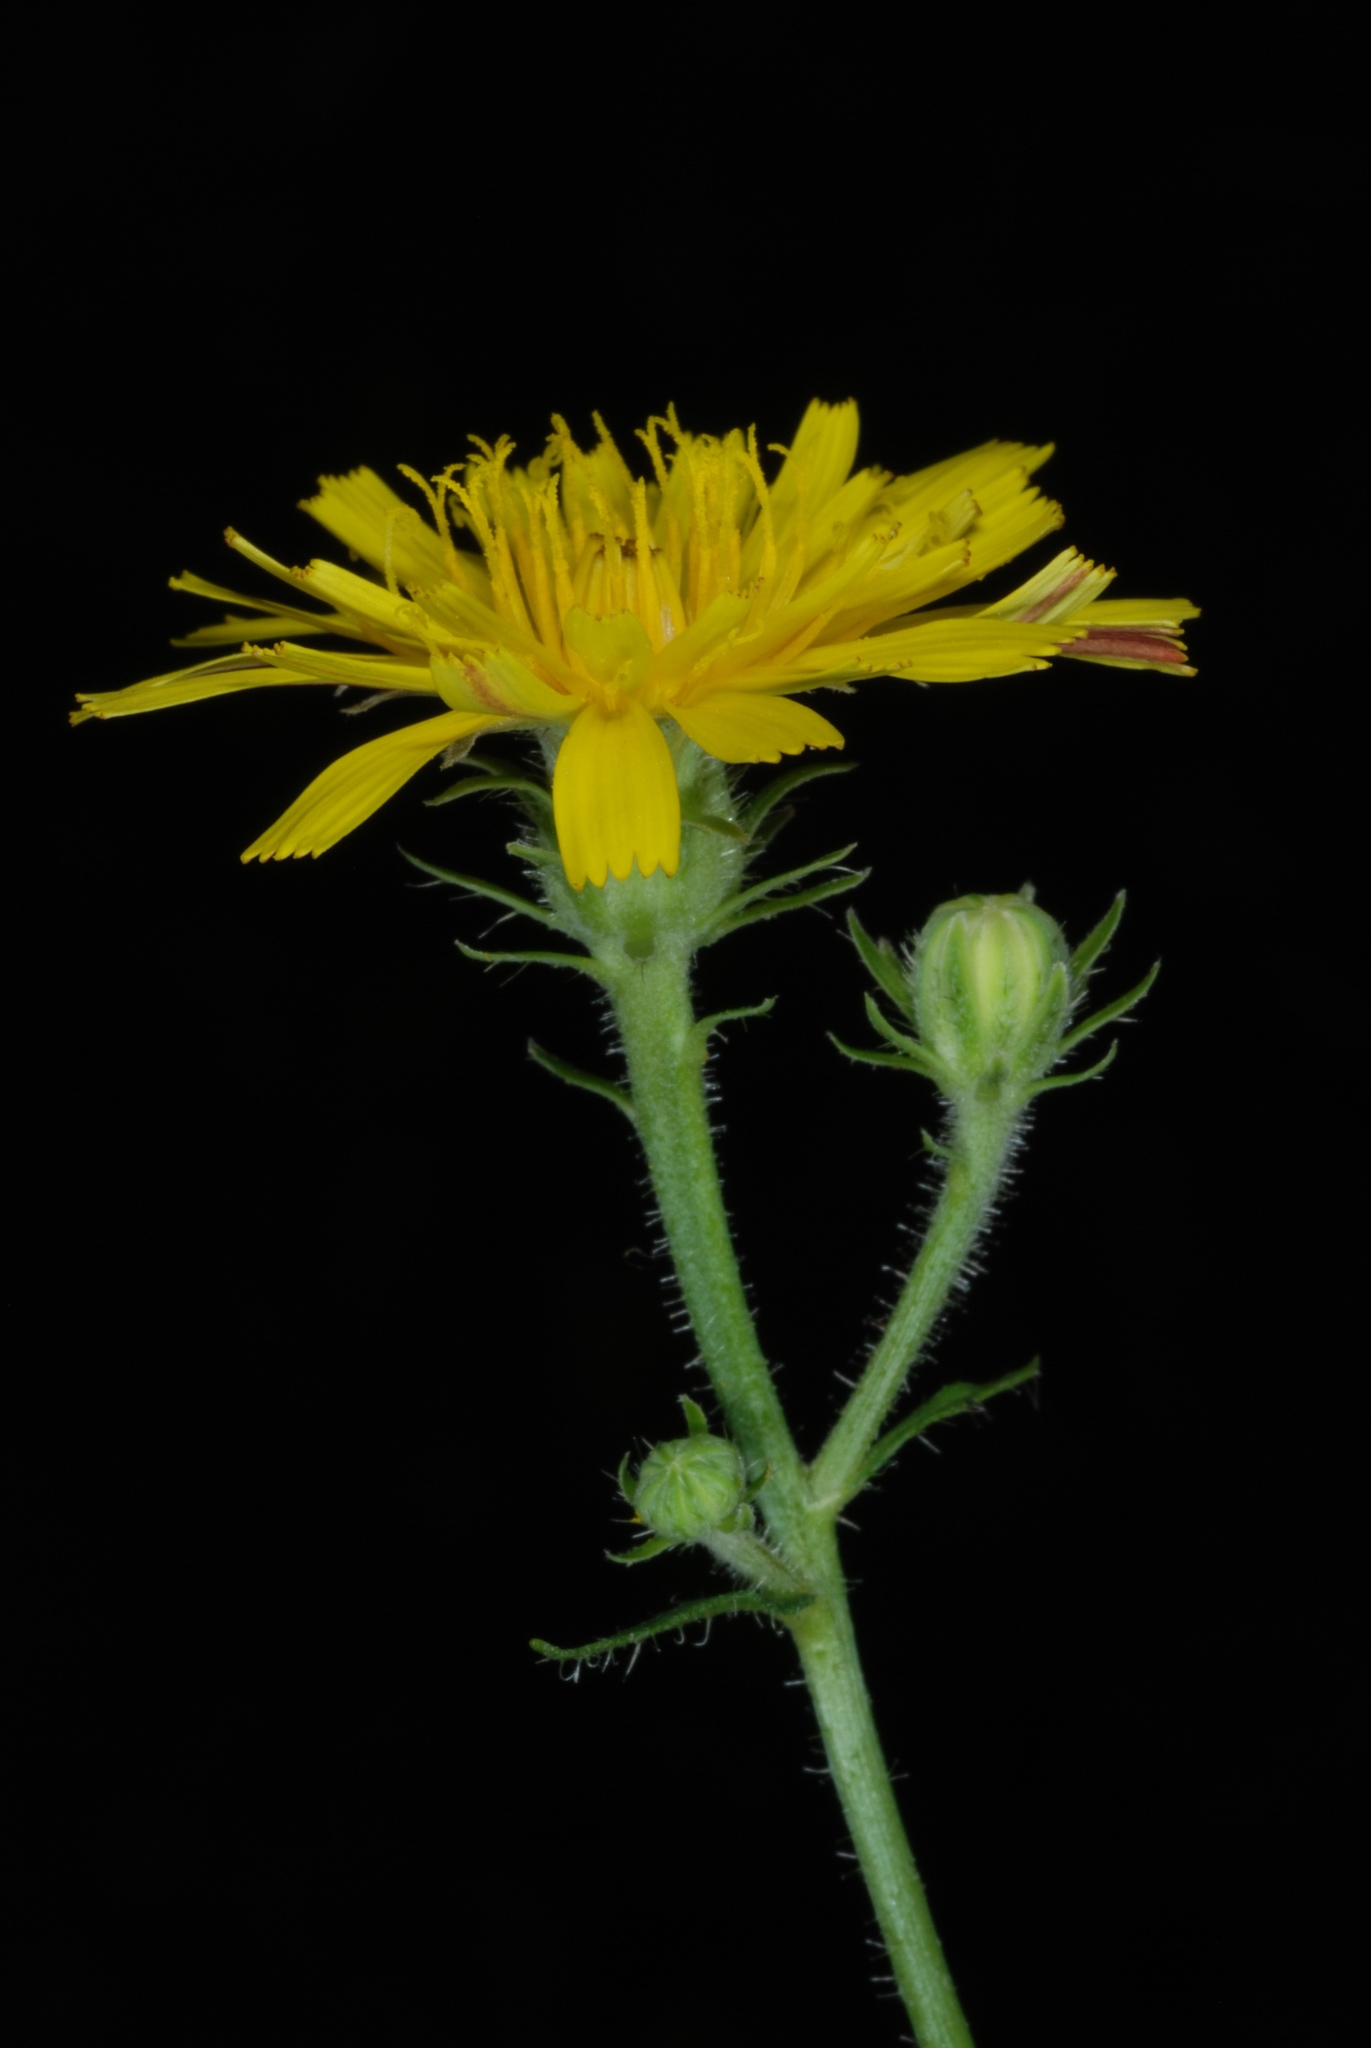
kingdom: Plantae
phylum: Tracheophyta
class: Magnoliopsida
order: Asterales
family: Asteraceae
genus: Picris
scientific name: Picris hieracioides
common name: Hawkweed oxtongue
